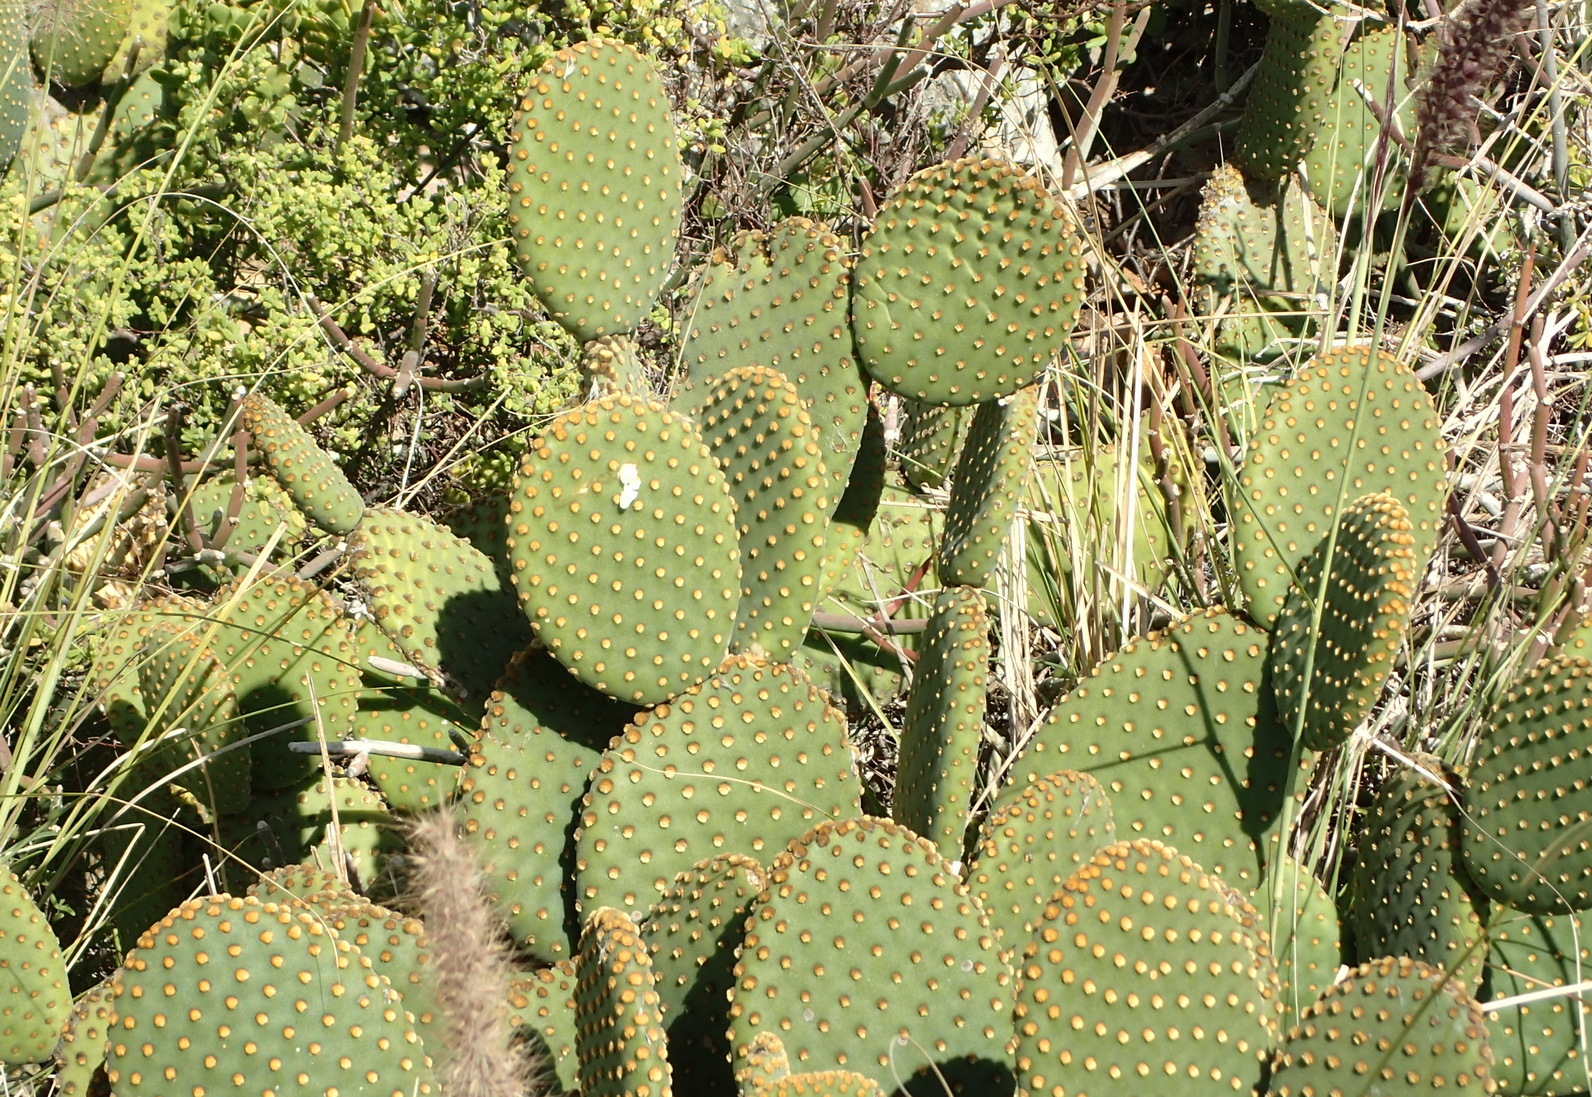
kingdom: Plantae
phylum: Tracheophyta
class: Magnoliopsida
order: Caryophyllales
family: Cactaceae
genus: Opuntia
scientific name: Opuntia microdasys
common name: Angel's-wings
